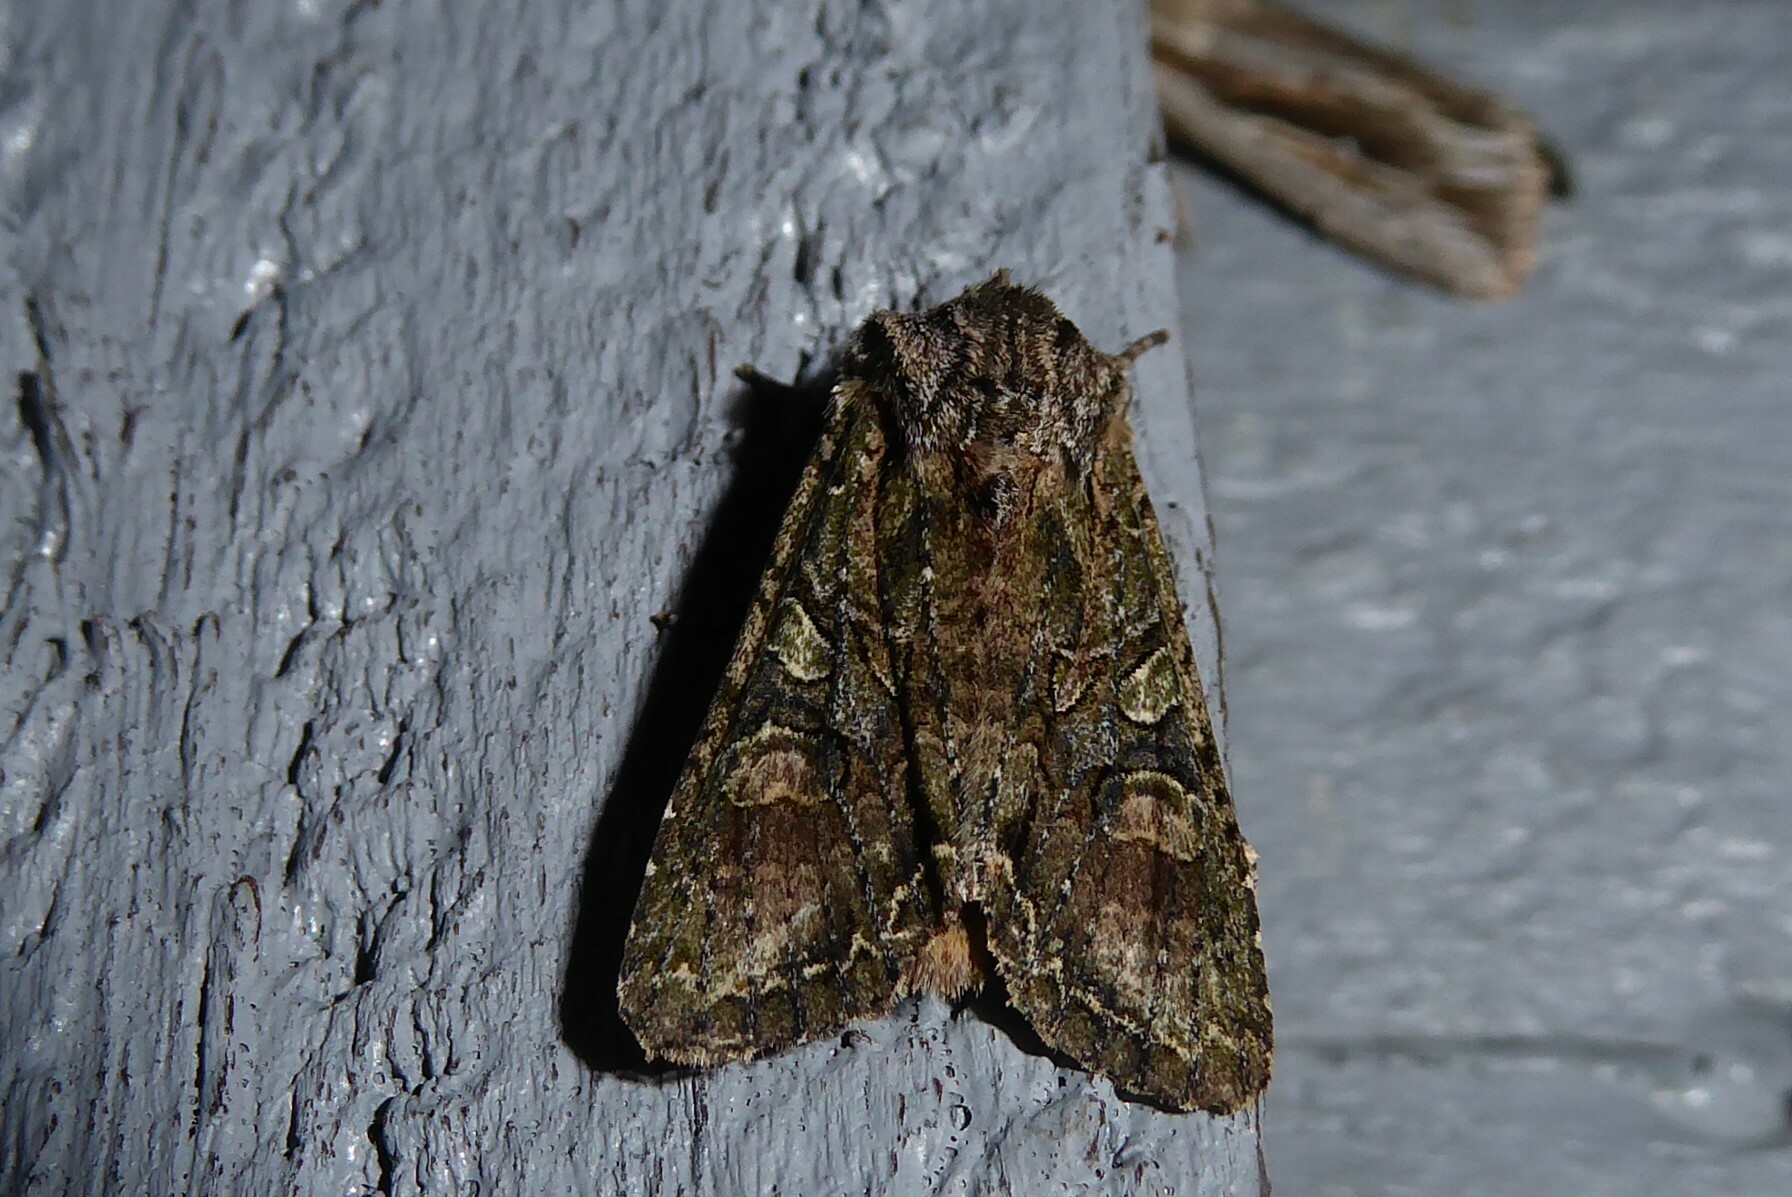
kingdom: Animalia
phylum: Arthropoda
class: Insecta
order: Lepidoptera
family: Noctuidae
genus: Ichneutica
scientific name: Ichneutica mutans
